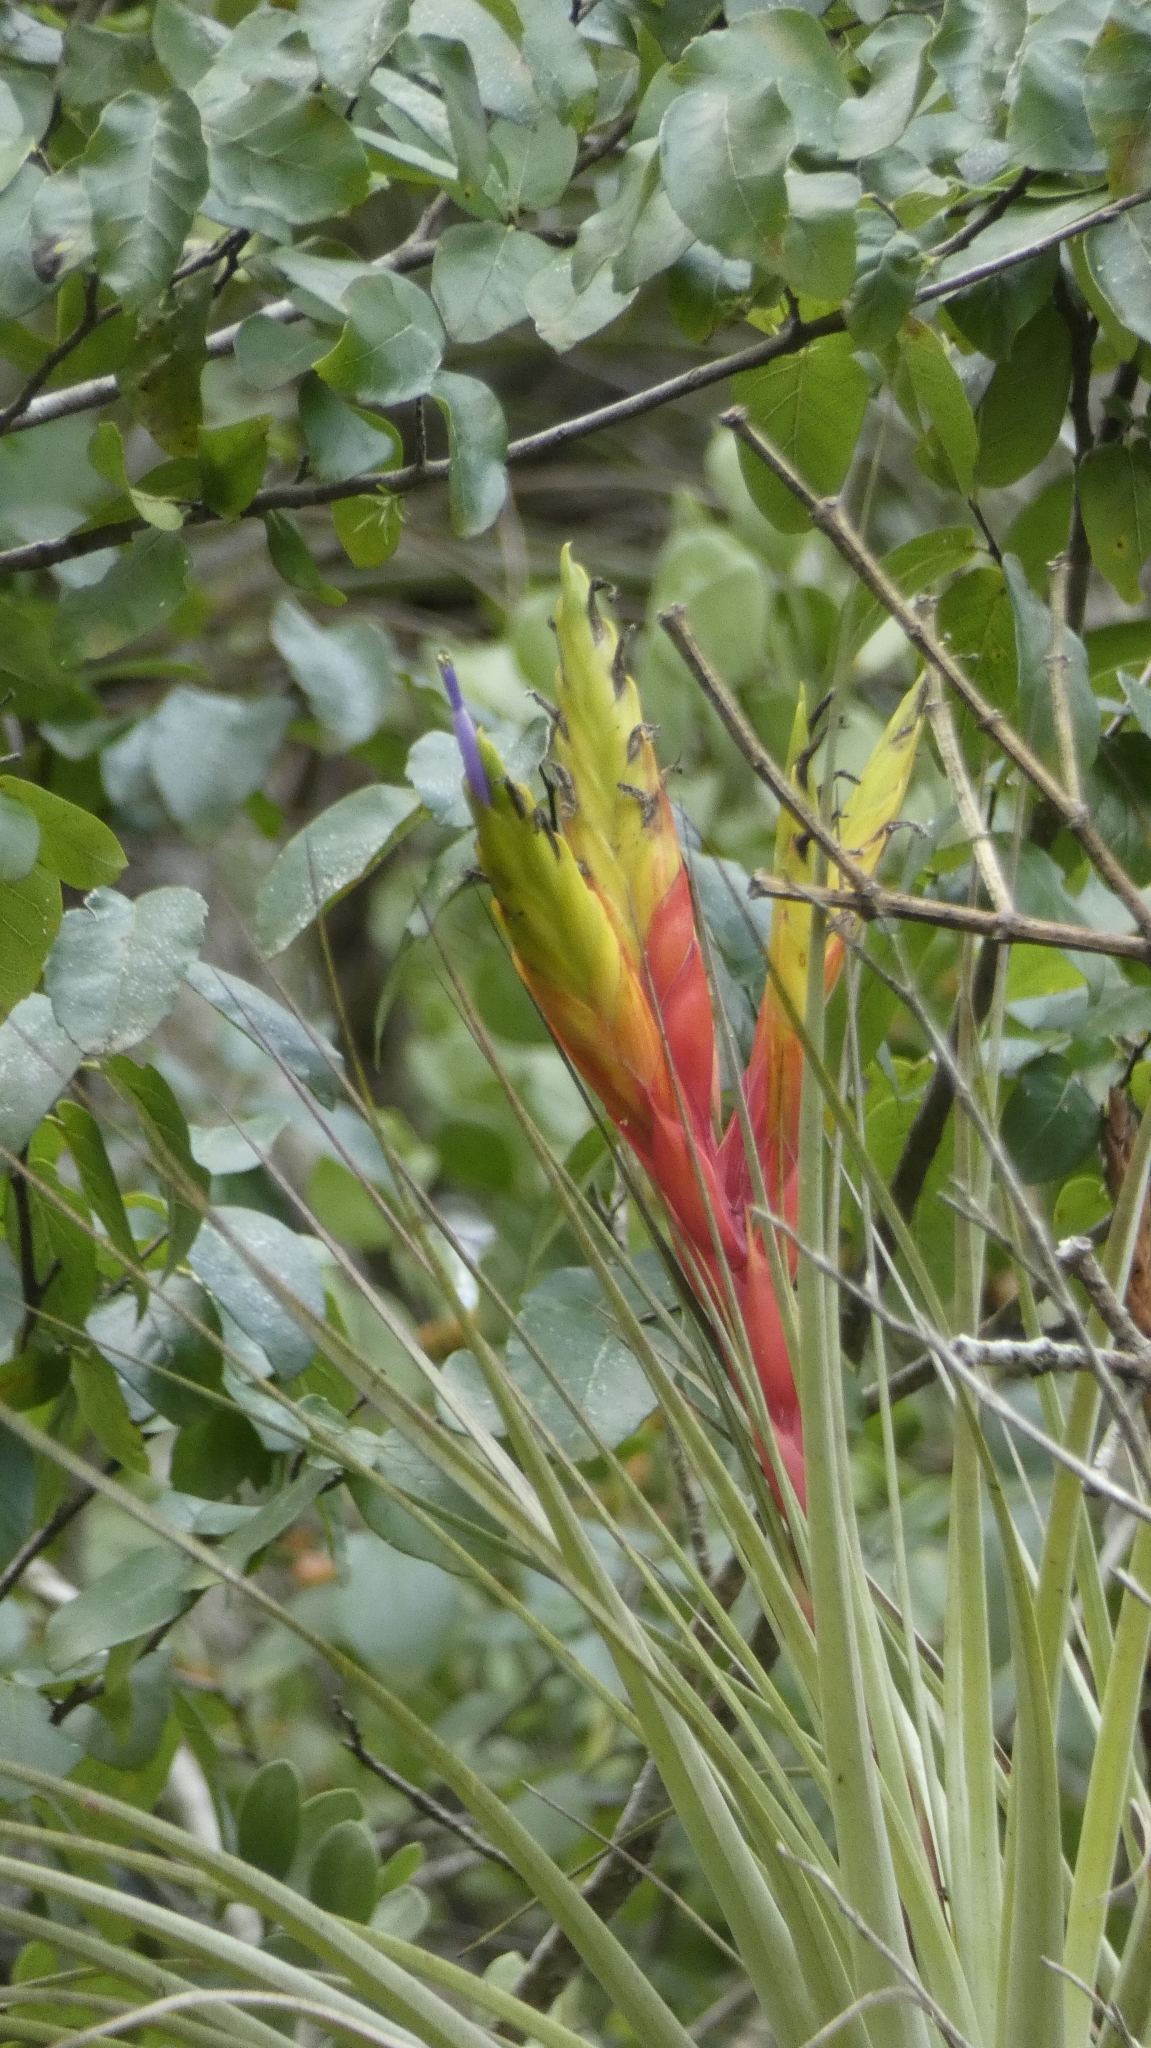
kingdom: Plantae
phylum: Tracheophyta
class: Liliopsida
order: Poales
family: Bromeliaceae
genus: Tillandsia
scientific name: Tillandsia fasciculata
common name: Giant airplant
